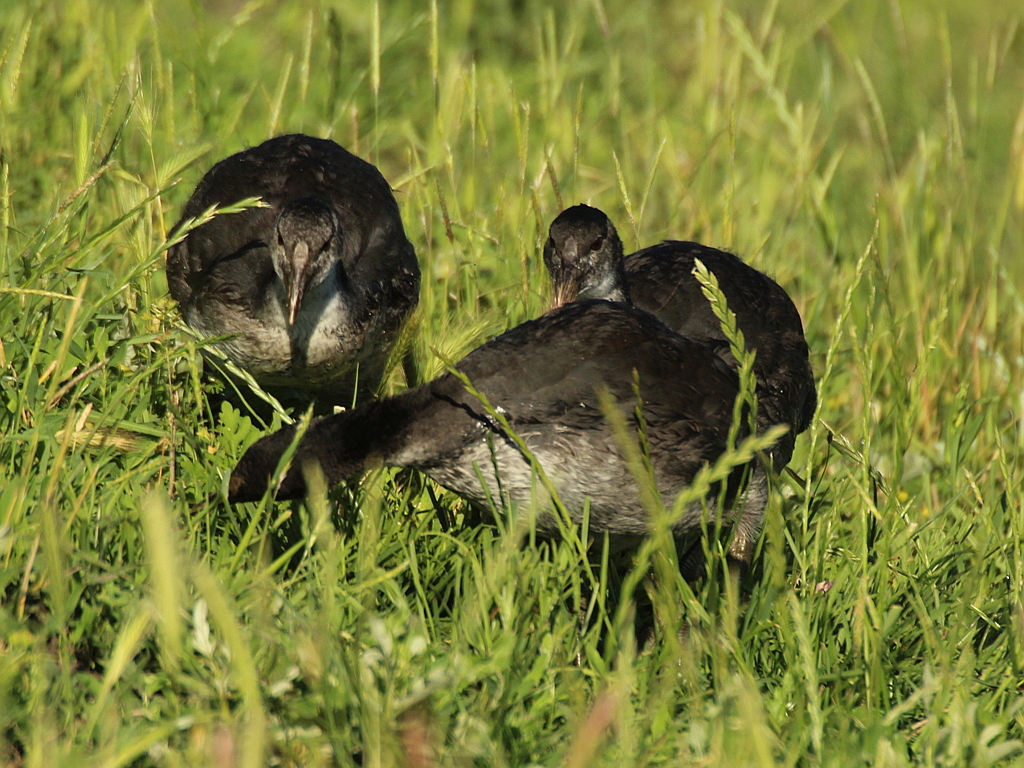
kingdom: Animalia
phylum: Chordata
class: Aves
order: Gruiformes
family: Rallidae
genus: Fulica
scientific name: Fulica atra
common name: Eurasian coot
